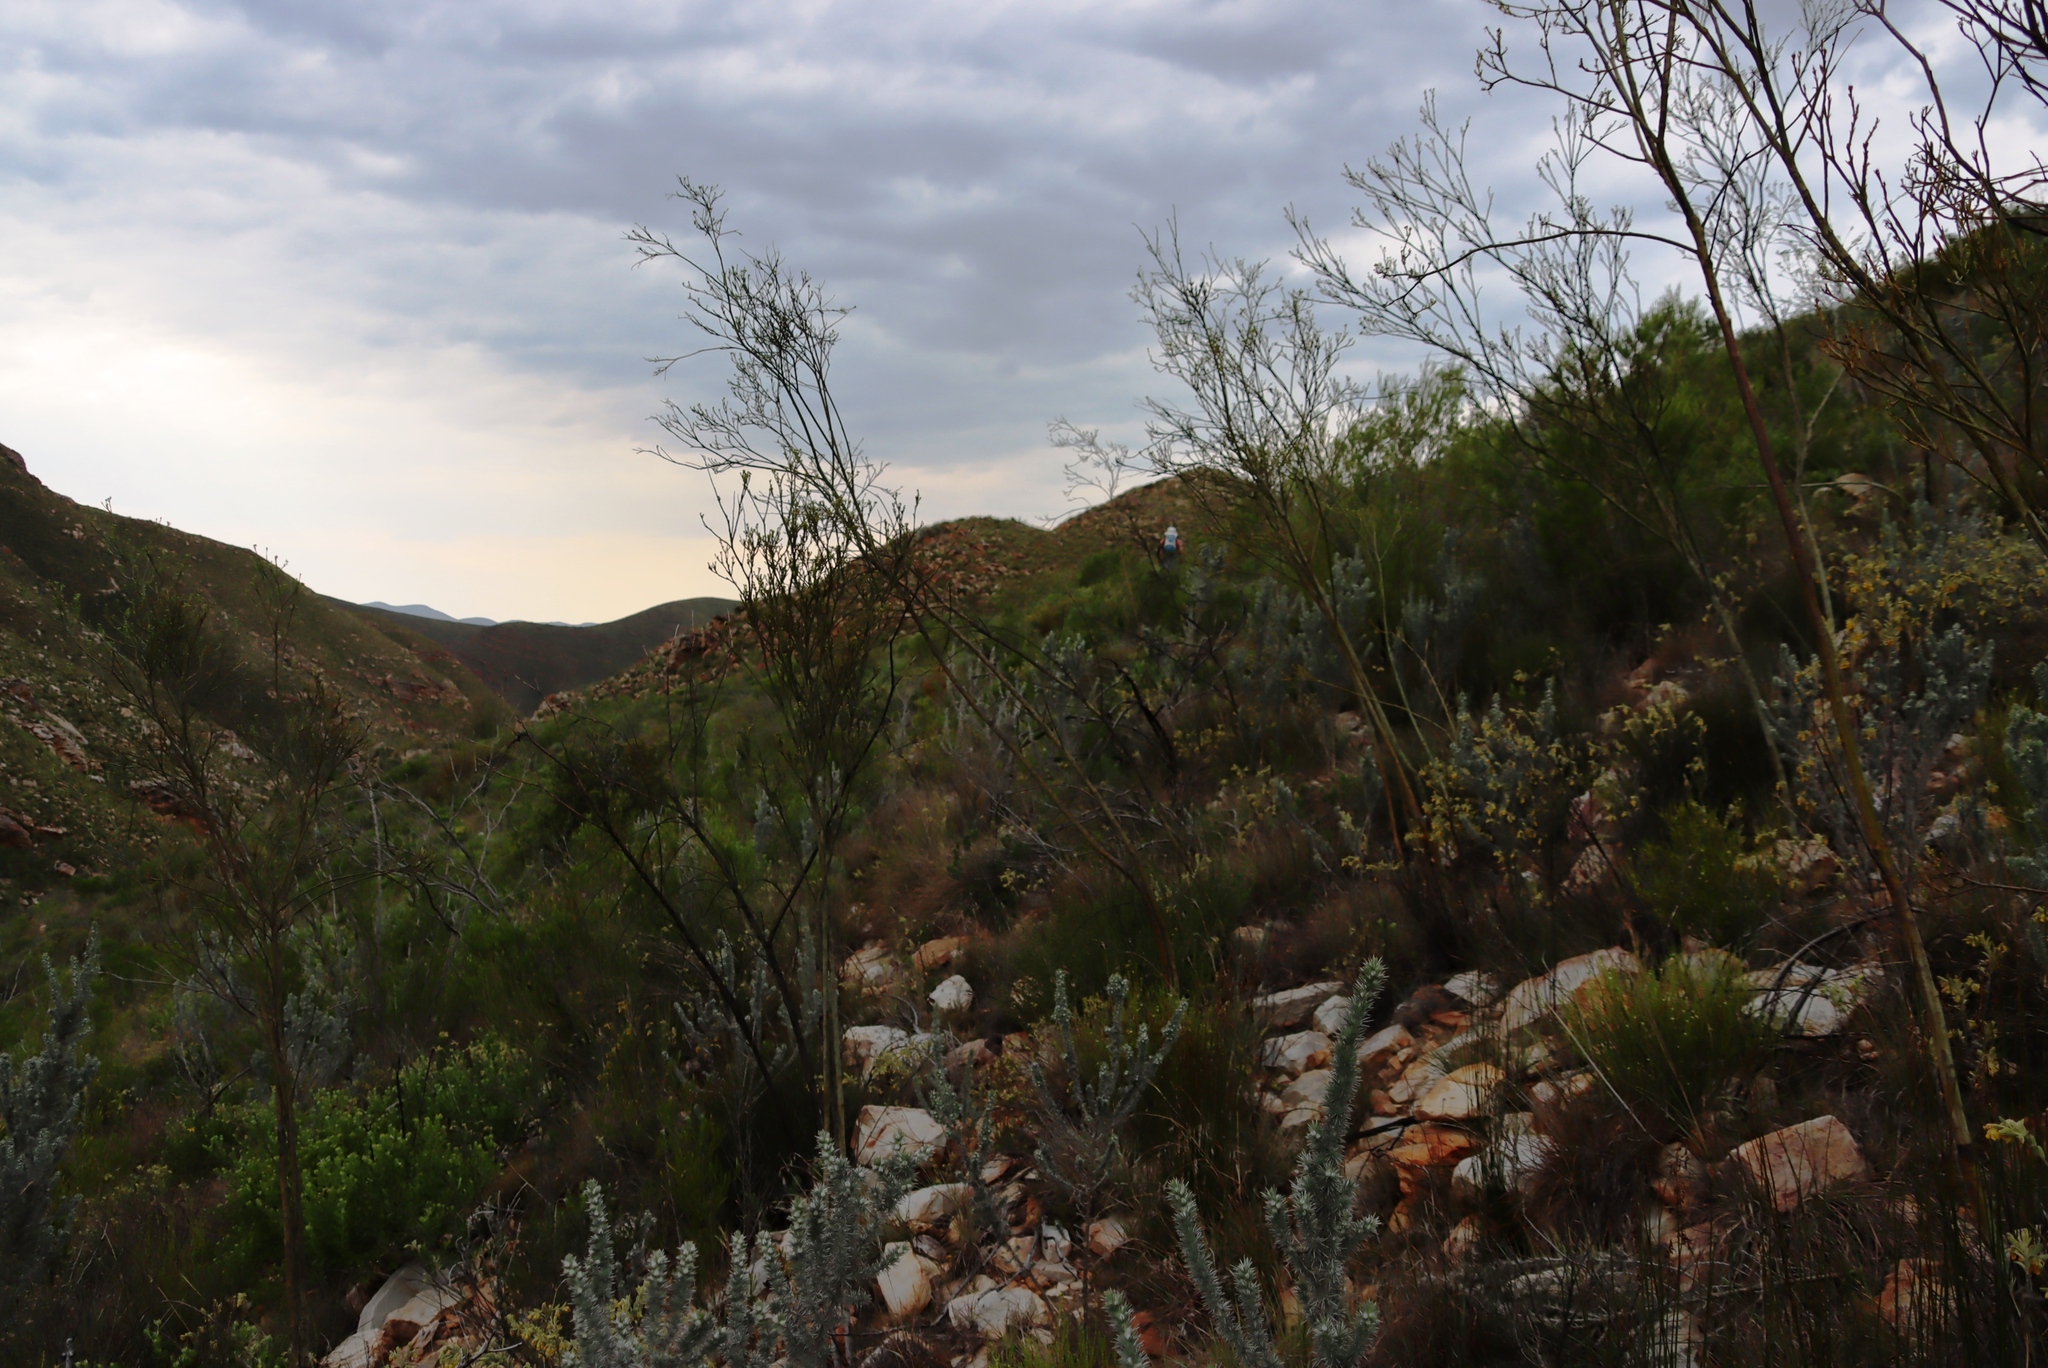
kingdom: Plantae
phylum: Tracheophyta
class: Magnoliopsida
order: Santalales
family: Thesiaceae
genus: Thesium
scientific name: Thesium strictum
